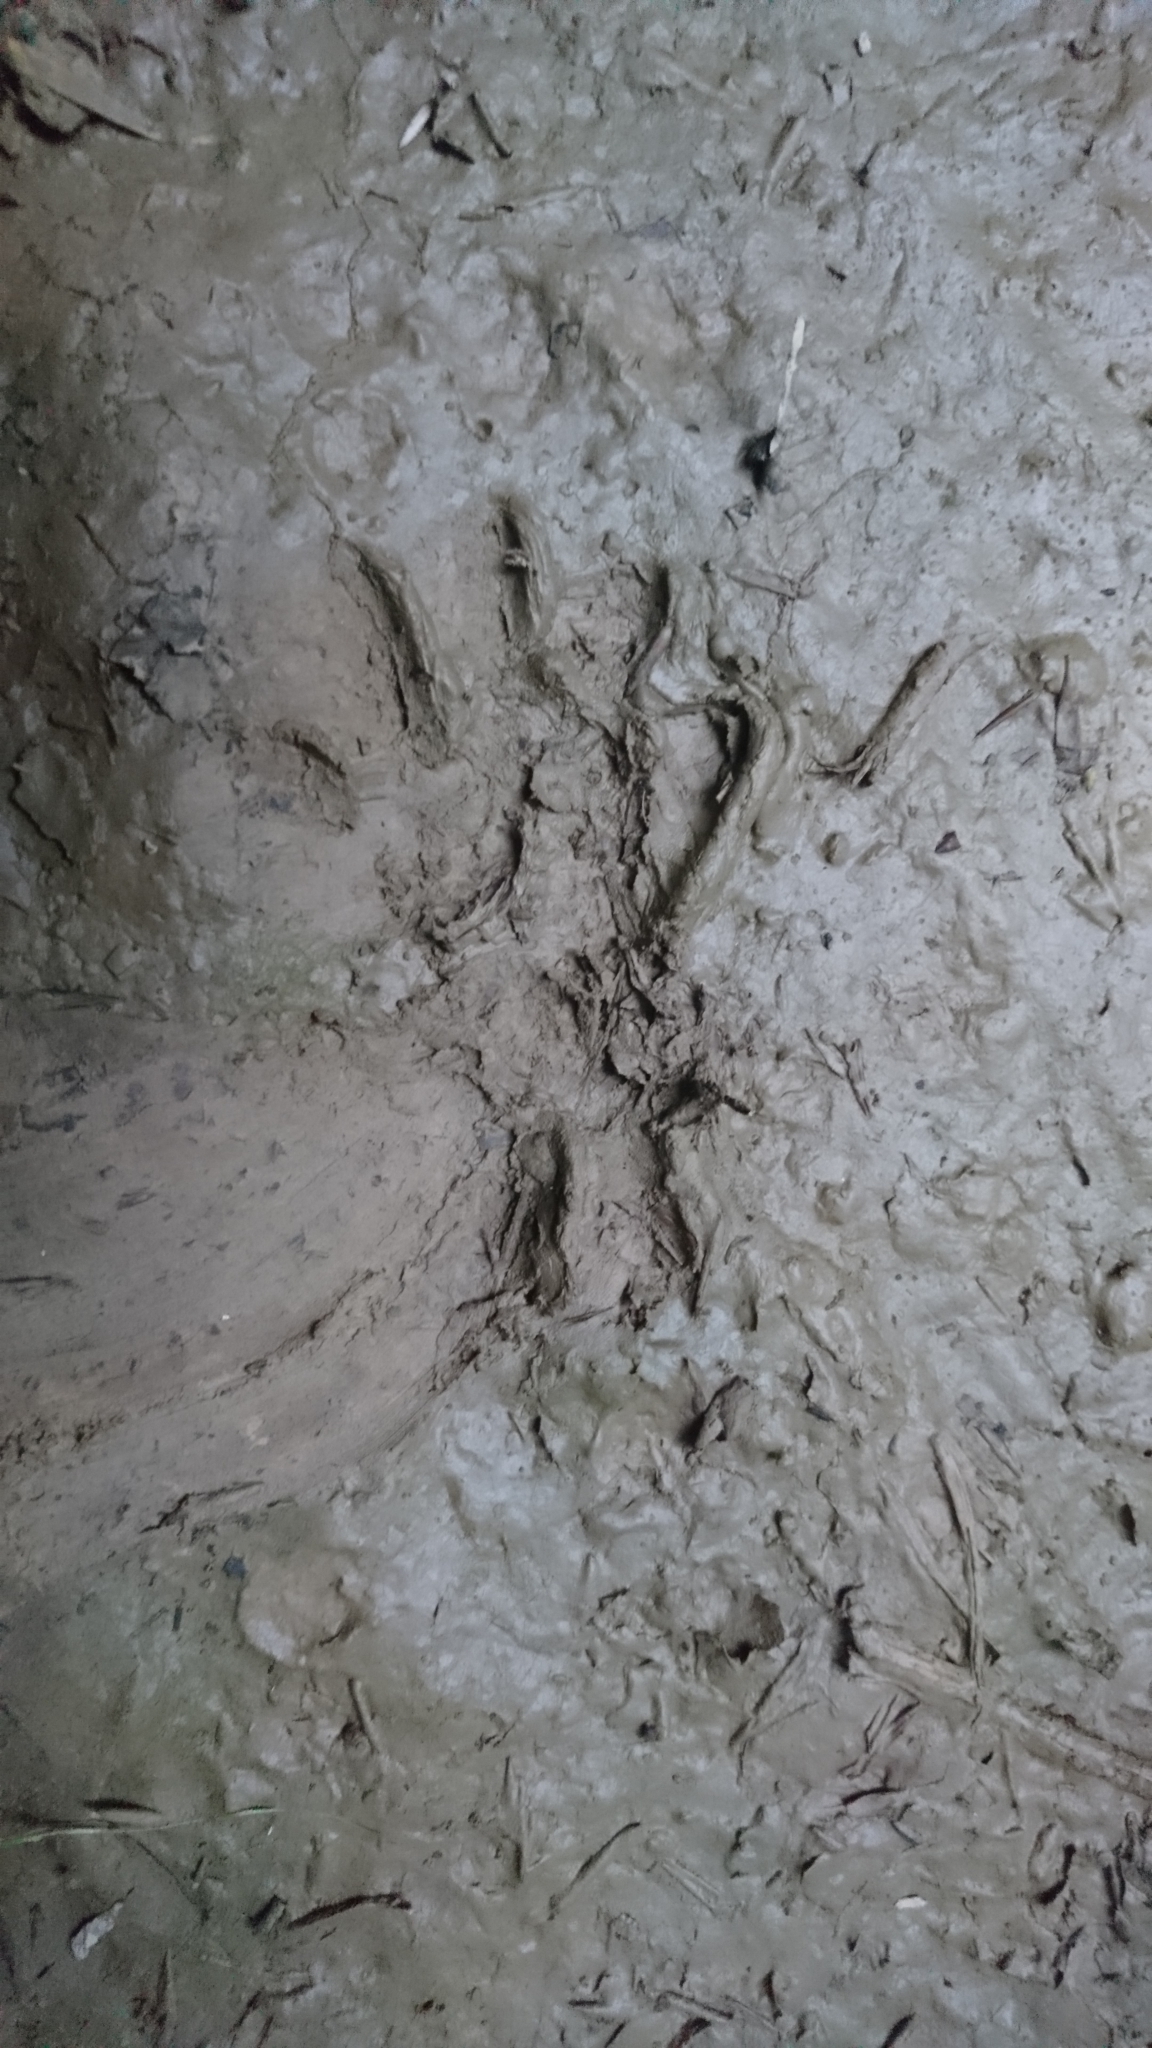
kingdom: Animalia
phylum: Chordata
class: Mammalia
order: Carnivora
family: Procyonidae
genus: Procyon
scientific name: Procyon lotor
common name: Raccoon
